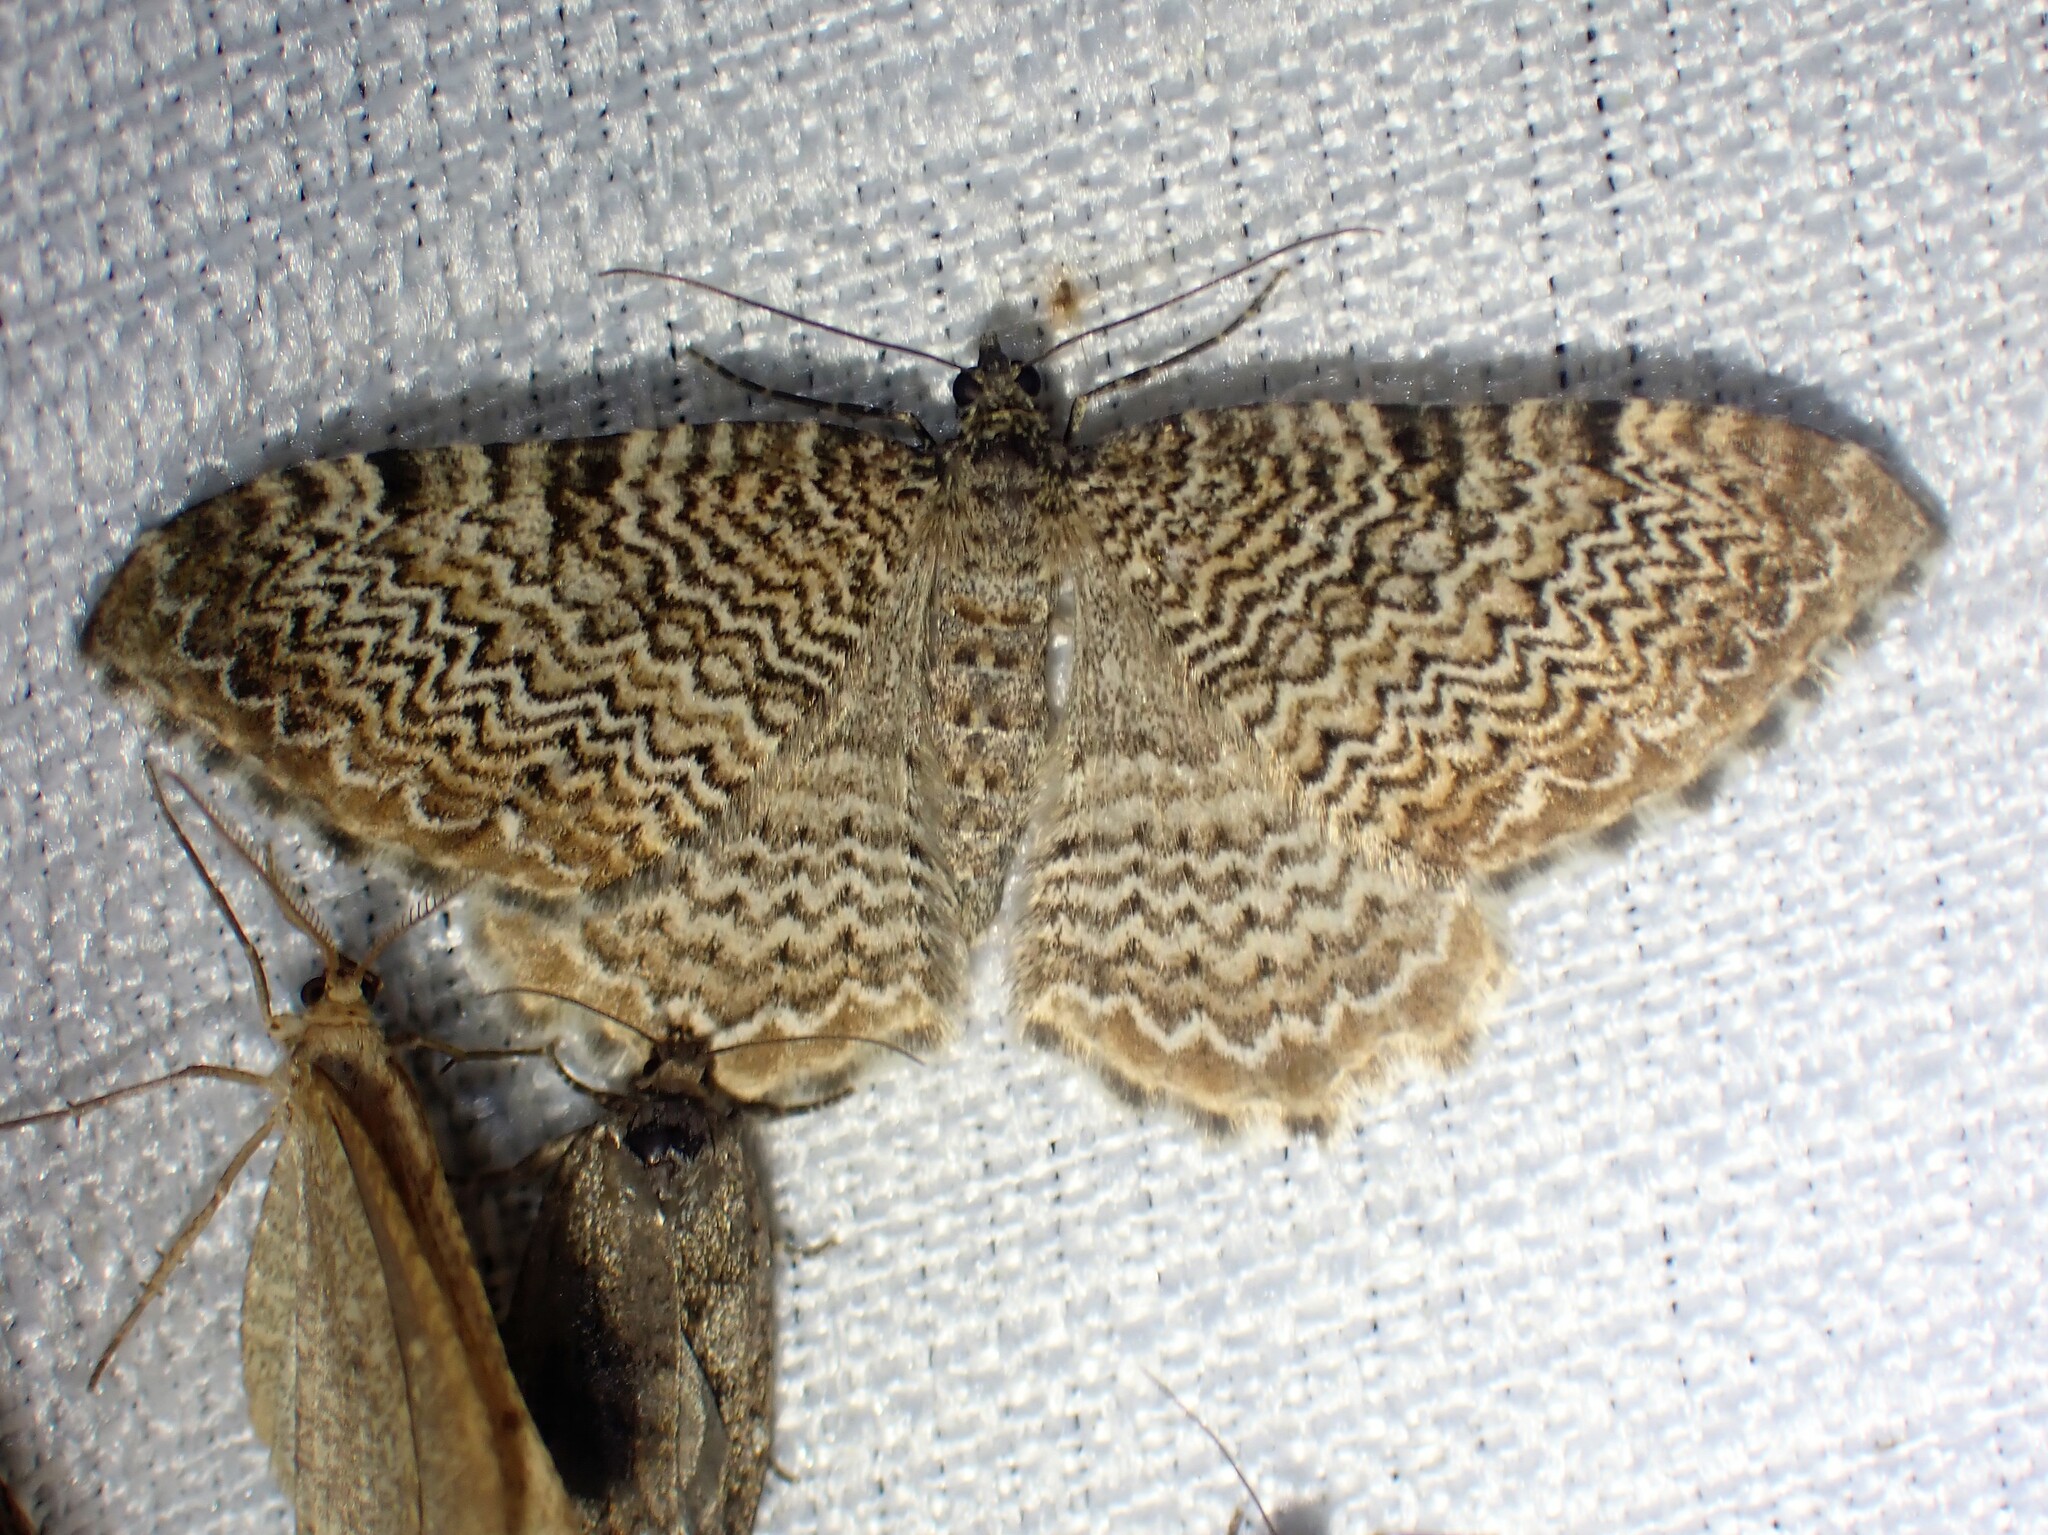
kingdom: Animalia
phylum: Arthropoda
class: Insecta
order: Lepidoptera
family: Geometridae
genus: Rheumaptera
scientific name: Rheumaptera
